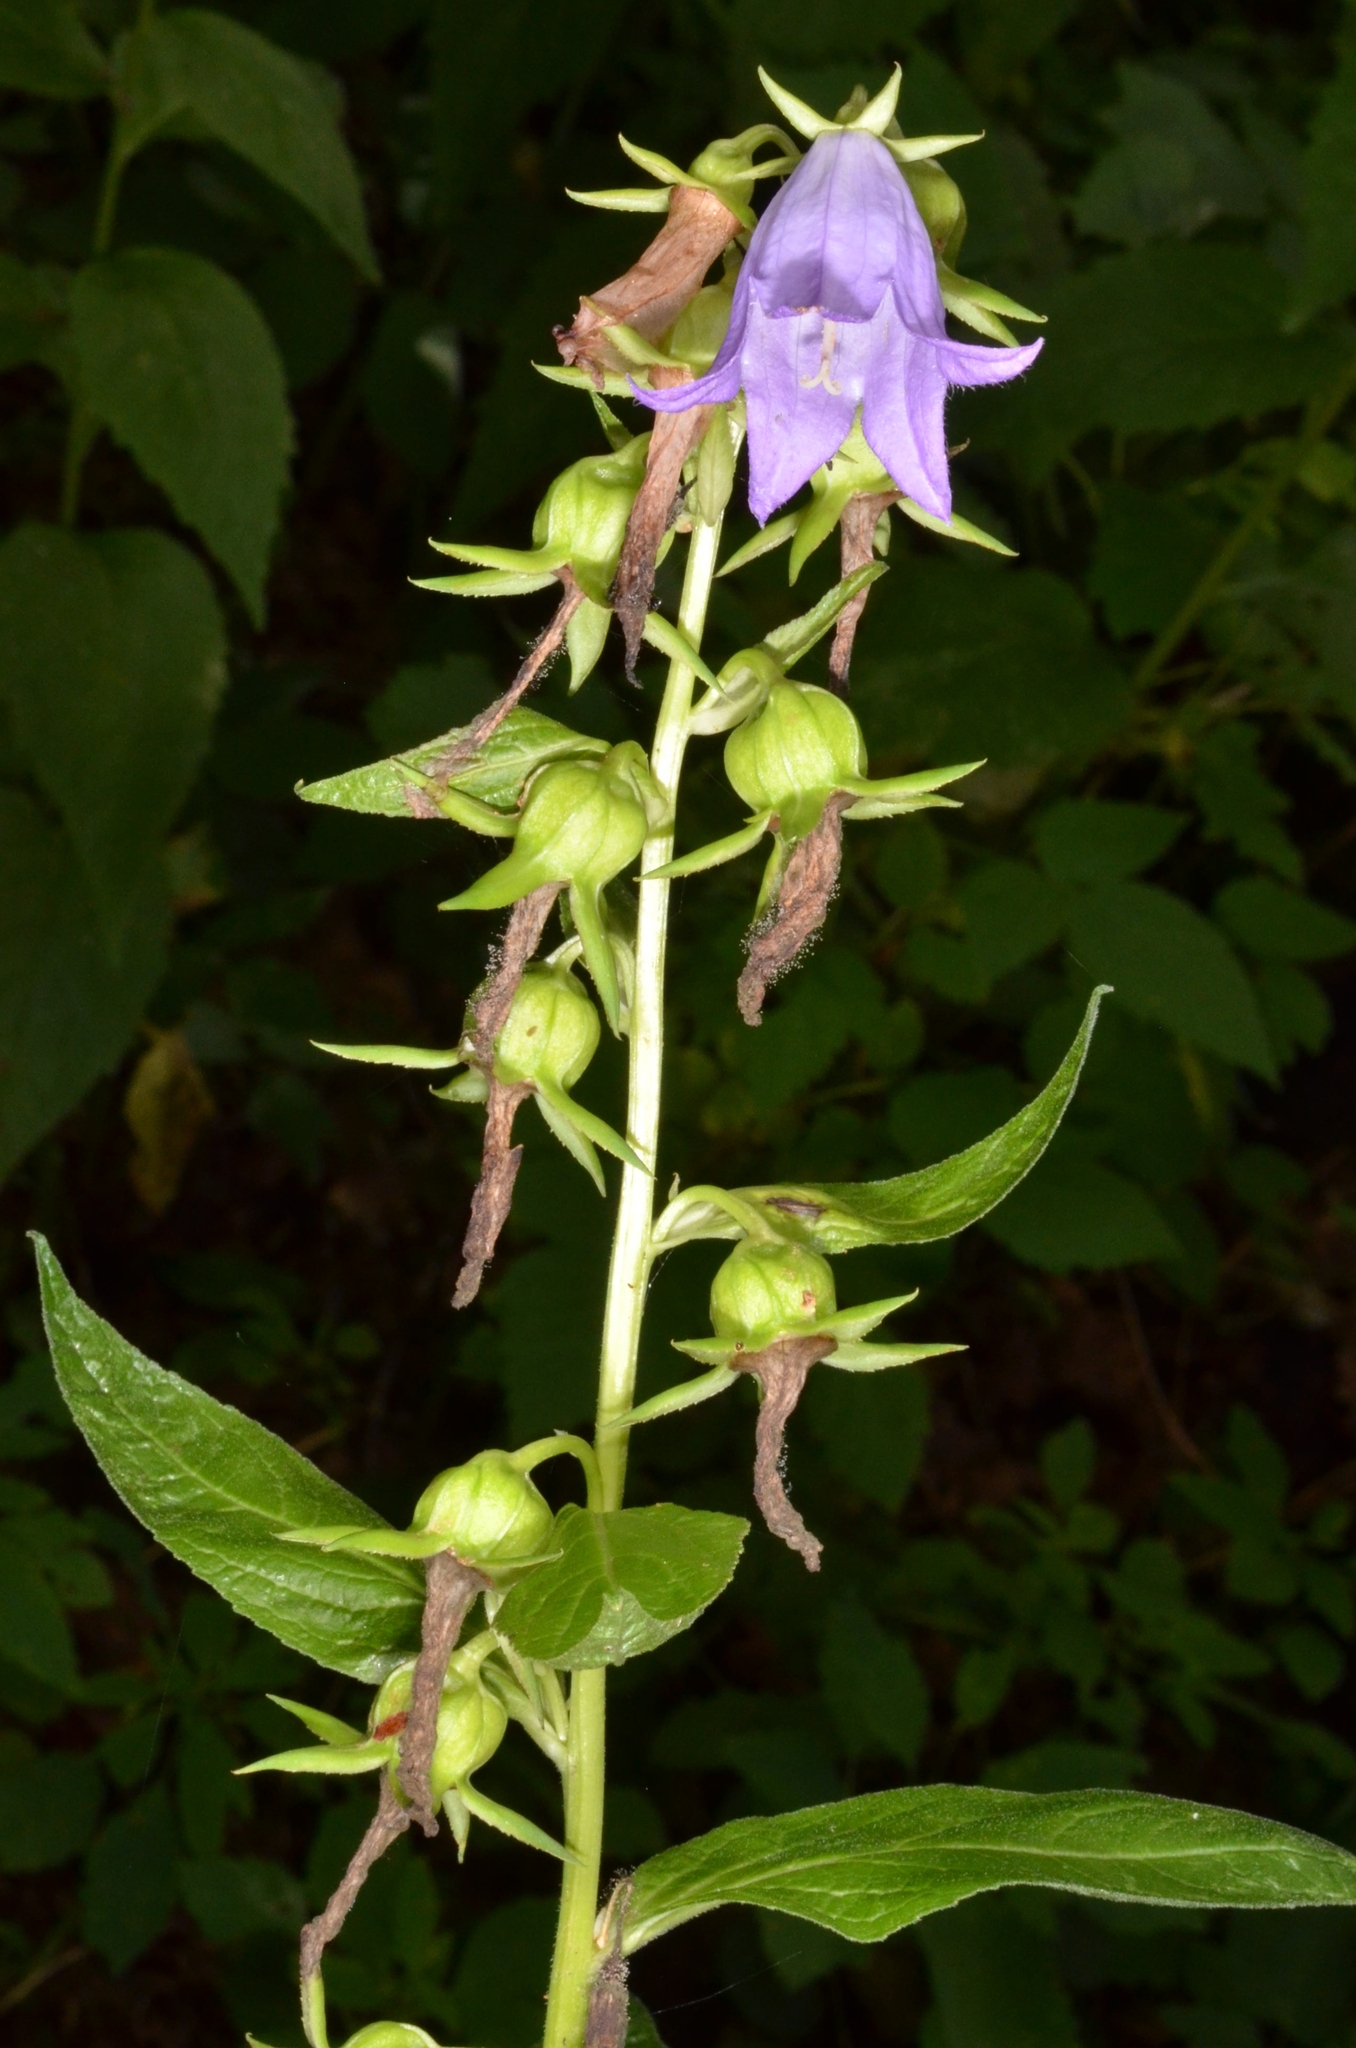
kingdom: Plantae
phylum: Tracheophyta
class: Magnoliopsida
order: Asterales
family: Campanulaceae
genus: Campanula
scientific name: Campanula latifolia
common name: Giant bellflower
